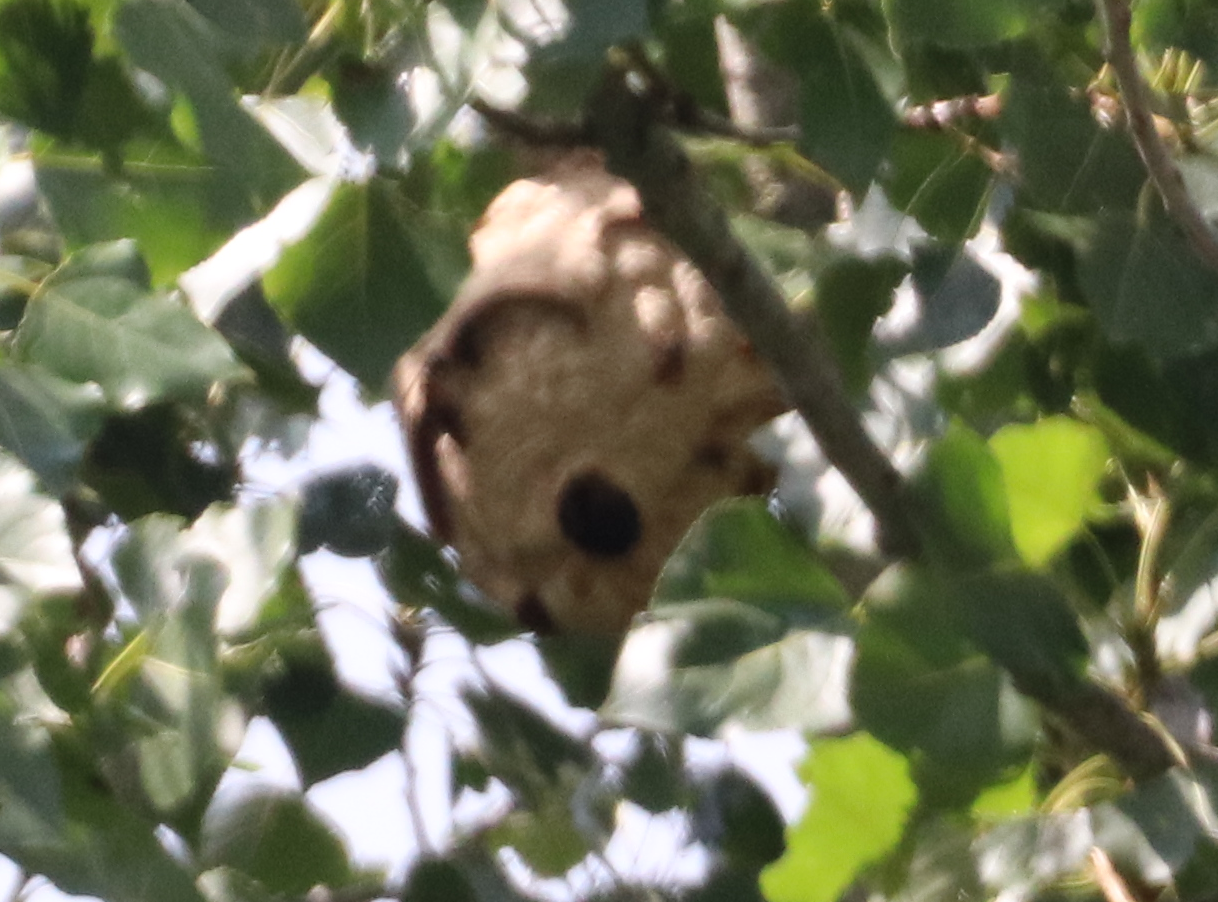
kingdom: Animalia
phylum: Arthropoda
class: Insecta
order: Hymenoptera
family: Vespidae
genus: Vespa
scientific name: Vespa velutina
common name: Asian hornet
